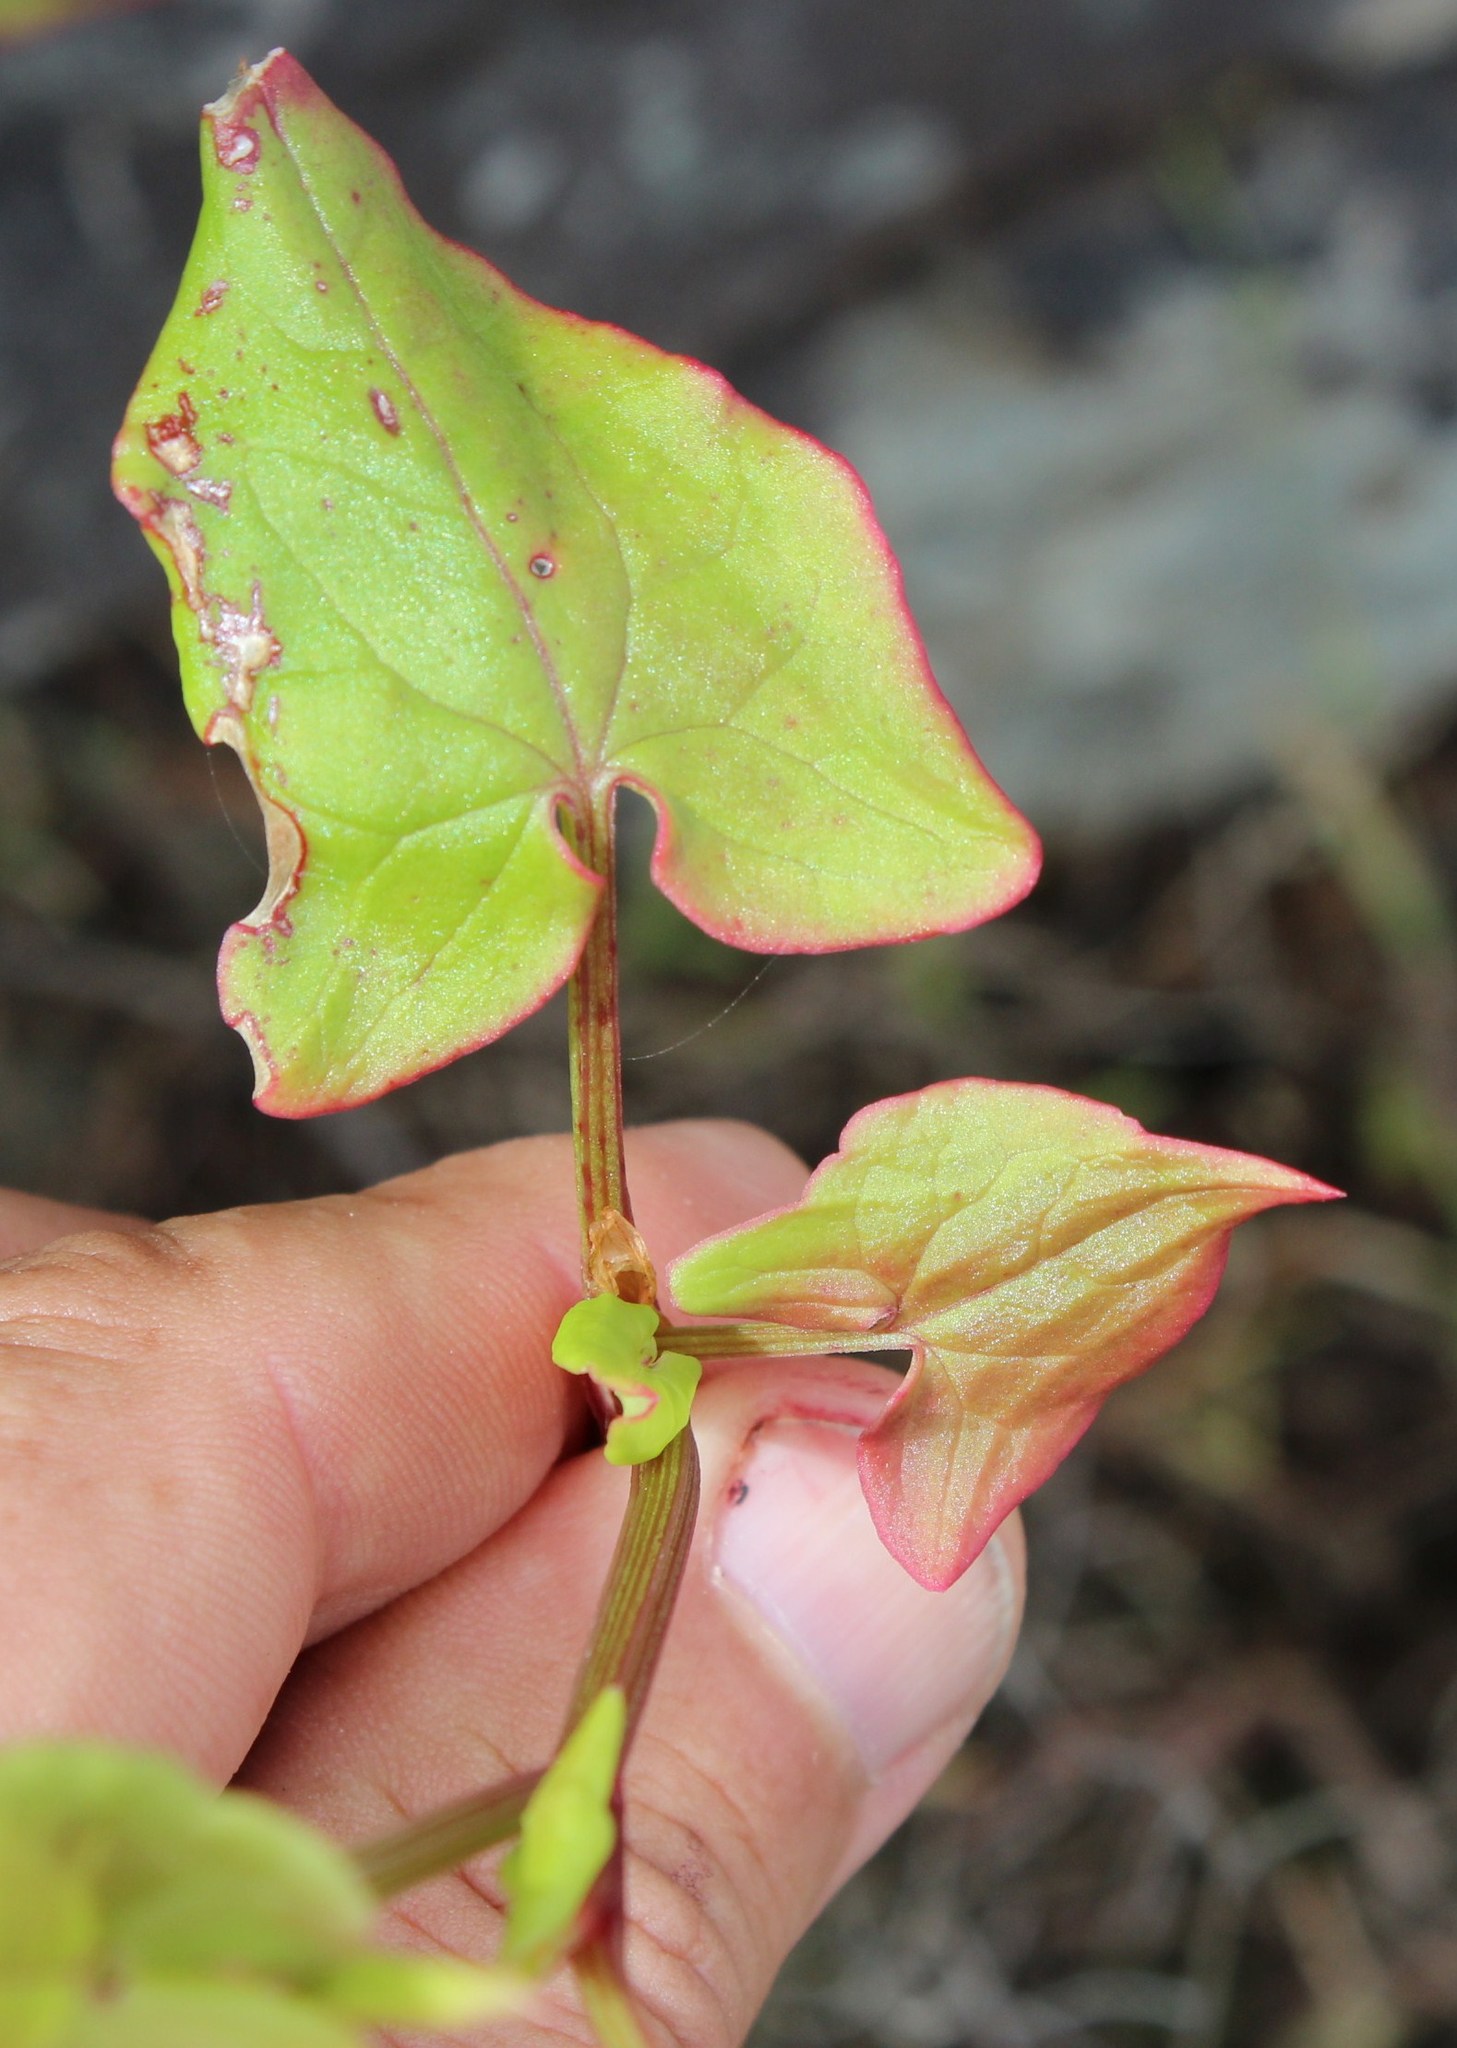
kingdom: Plantae
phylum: Tracheophyta
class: Magnoliopsida
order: Caryophyllales
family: Polygonaceae
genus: Rumex
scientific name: Rumex sagittatus
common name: Climbing dock
